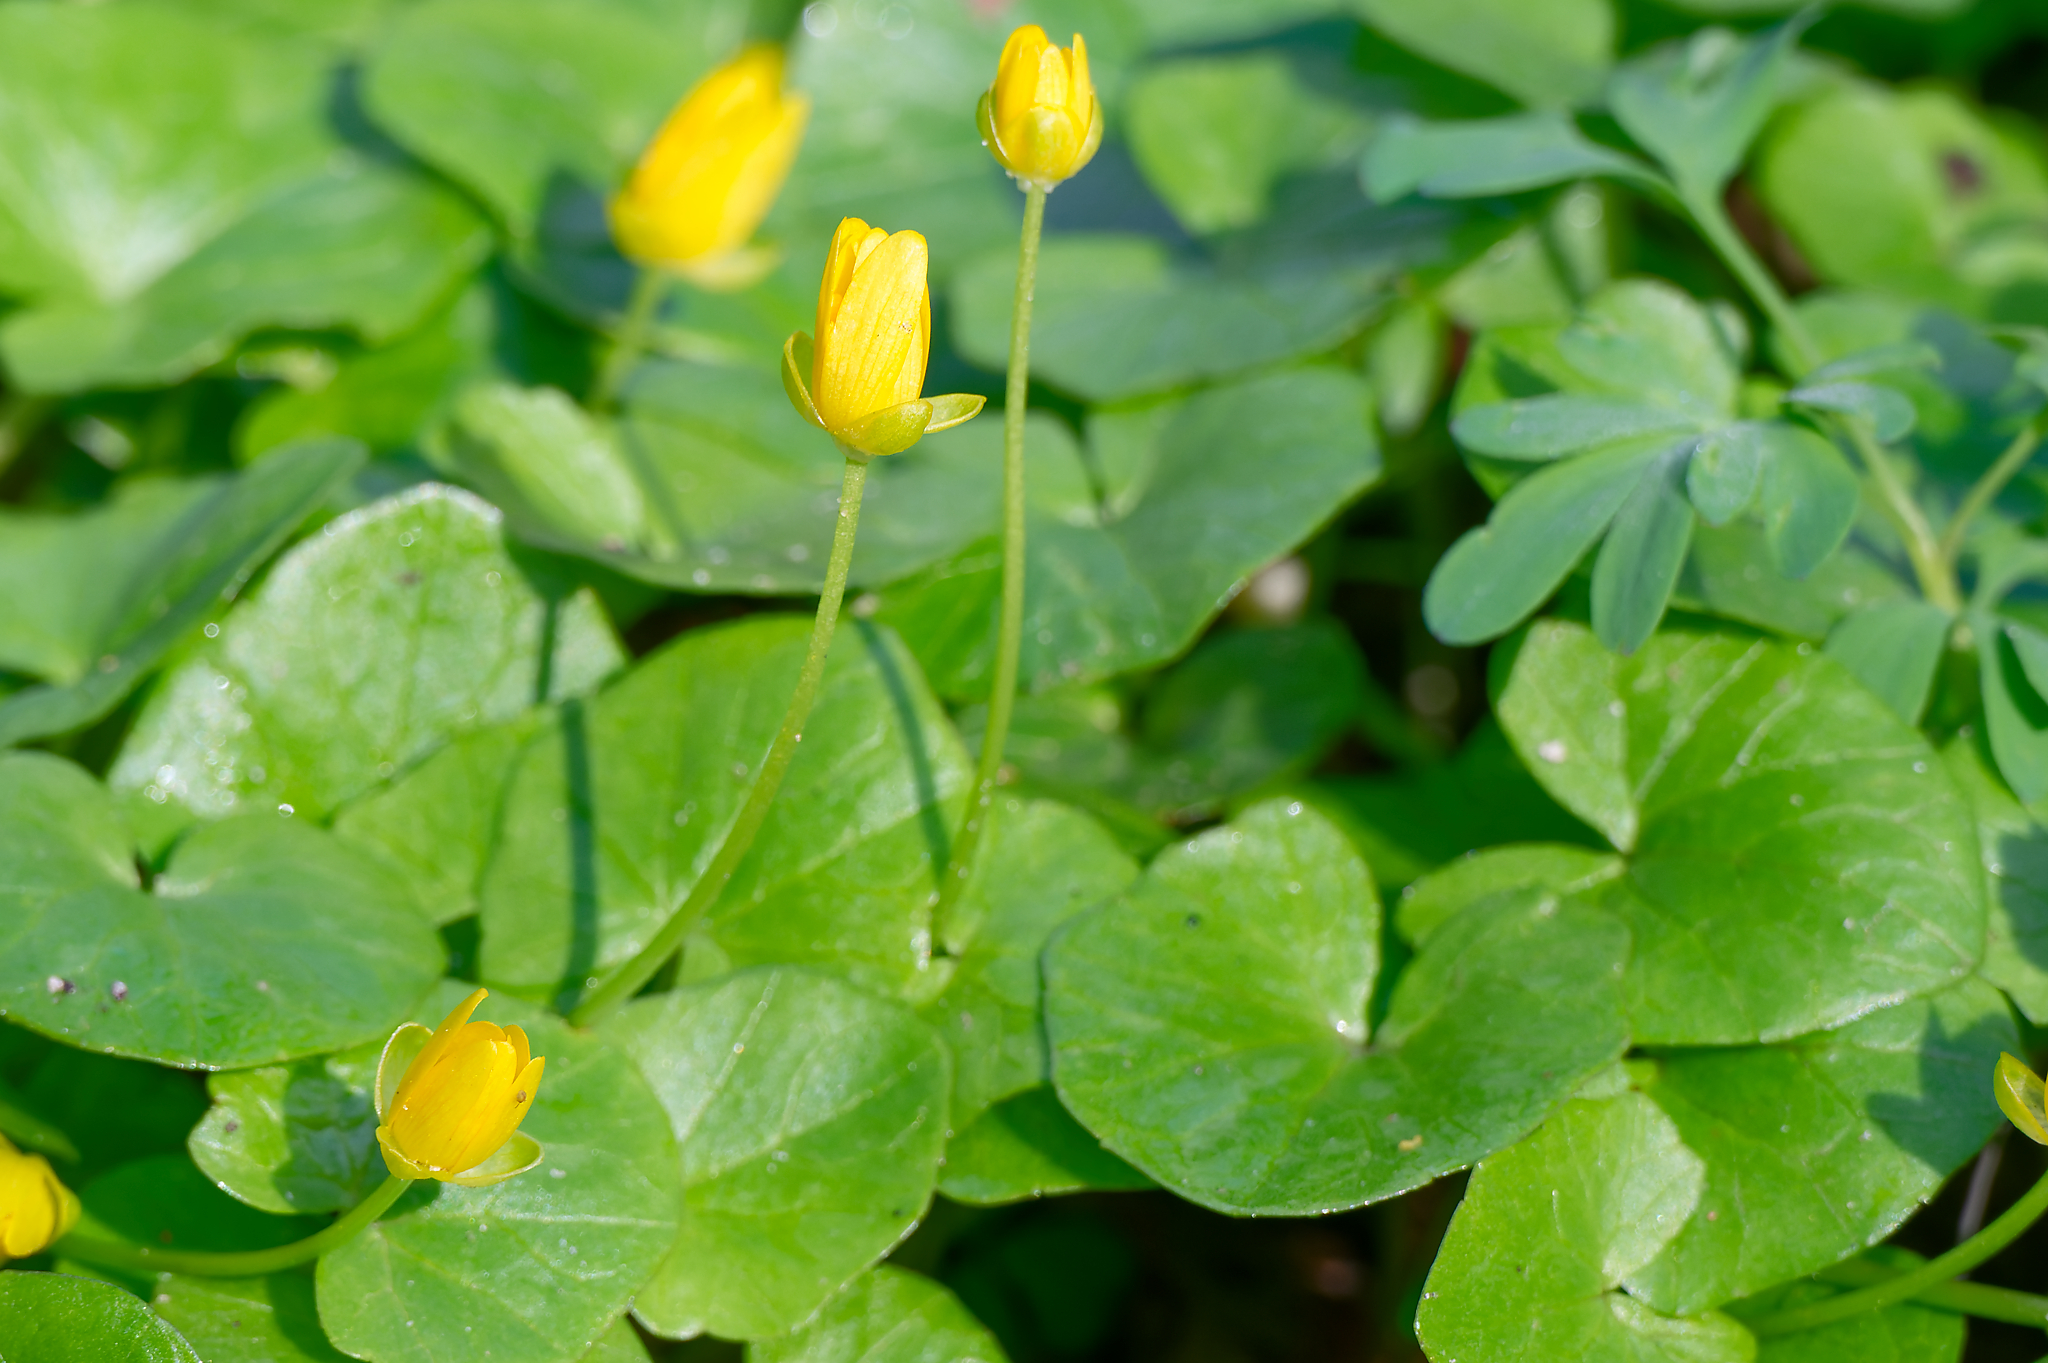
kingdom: Plantae
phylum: Tracheophyta
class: Magnoliopsida
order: Ranunculales
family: Ranunculaceae
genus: Ficaria
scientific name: Ficaria verna
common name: Lesser celandine
